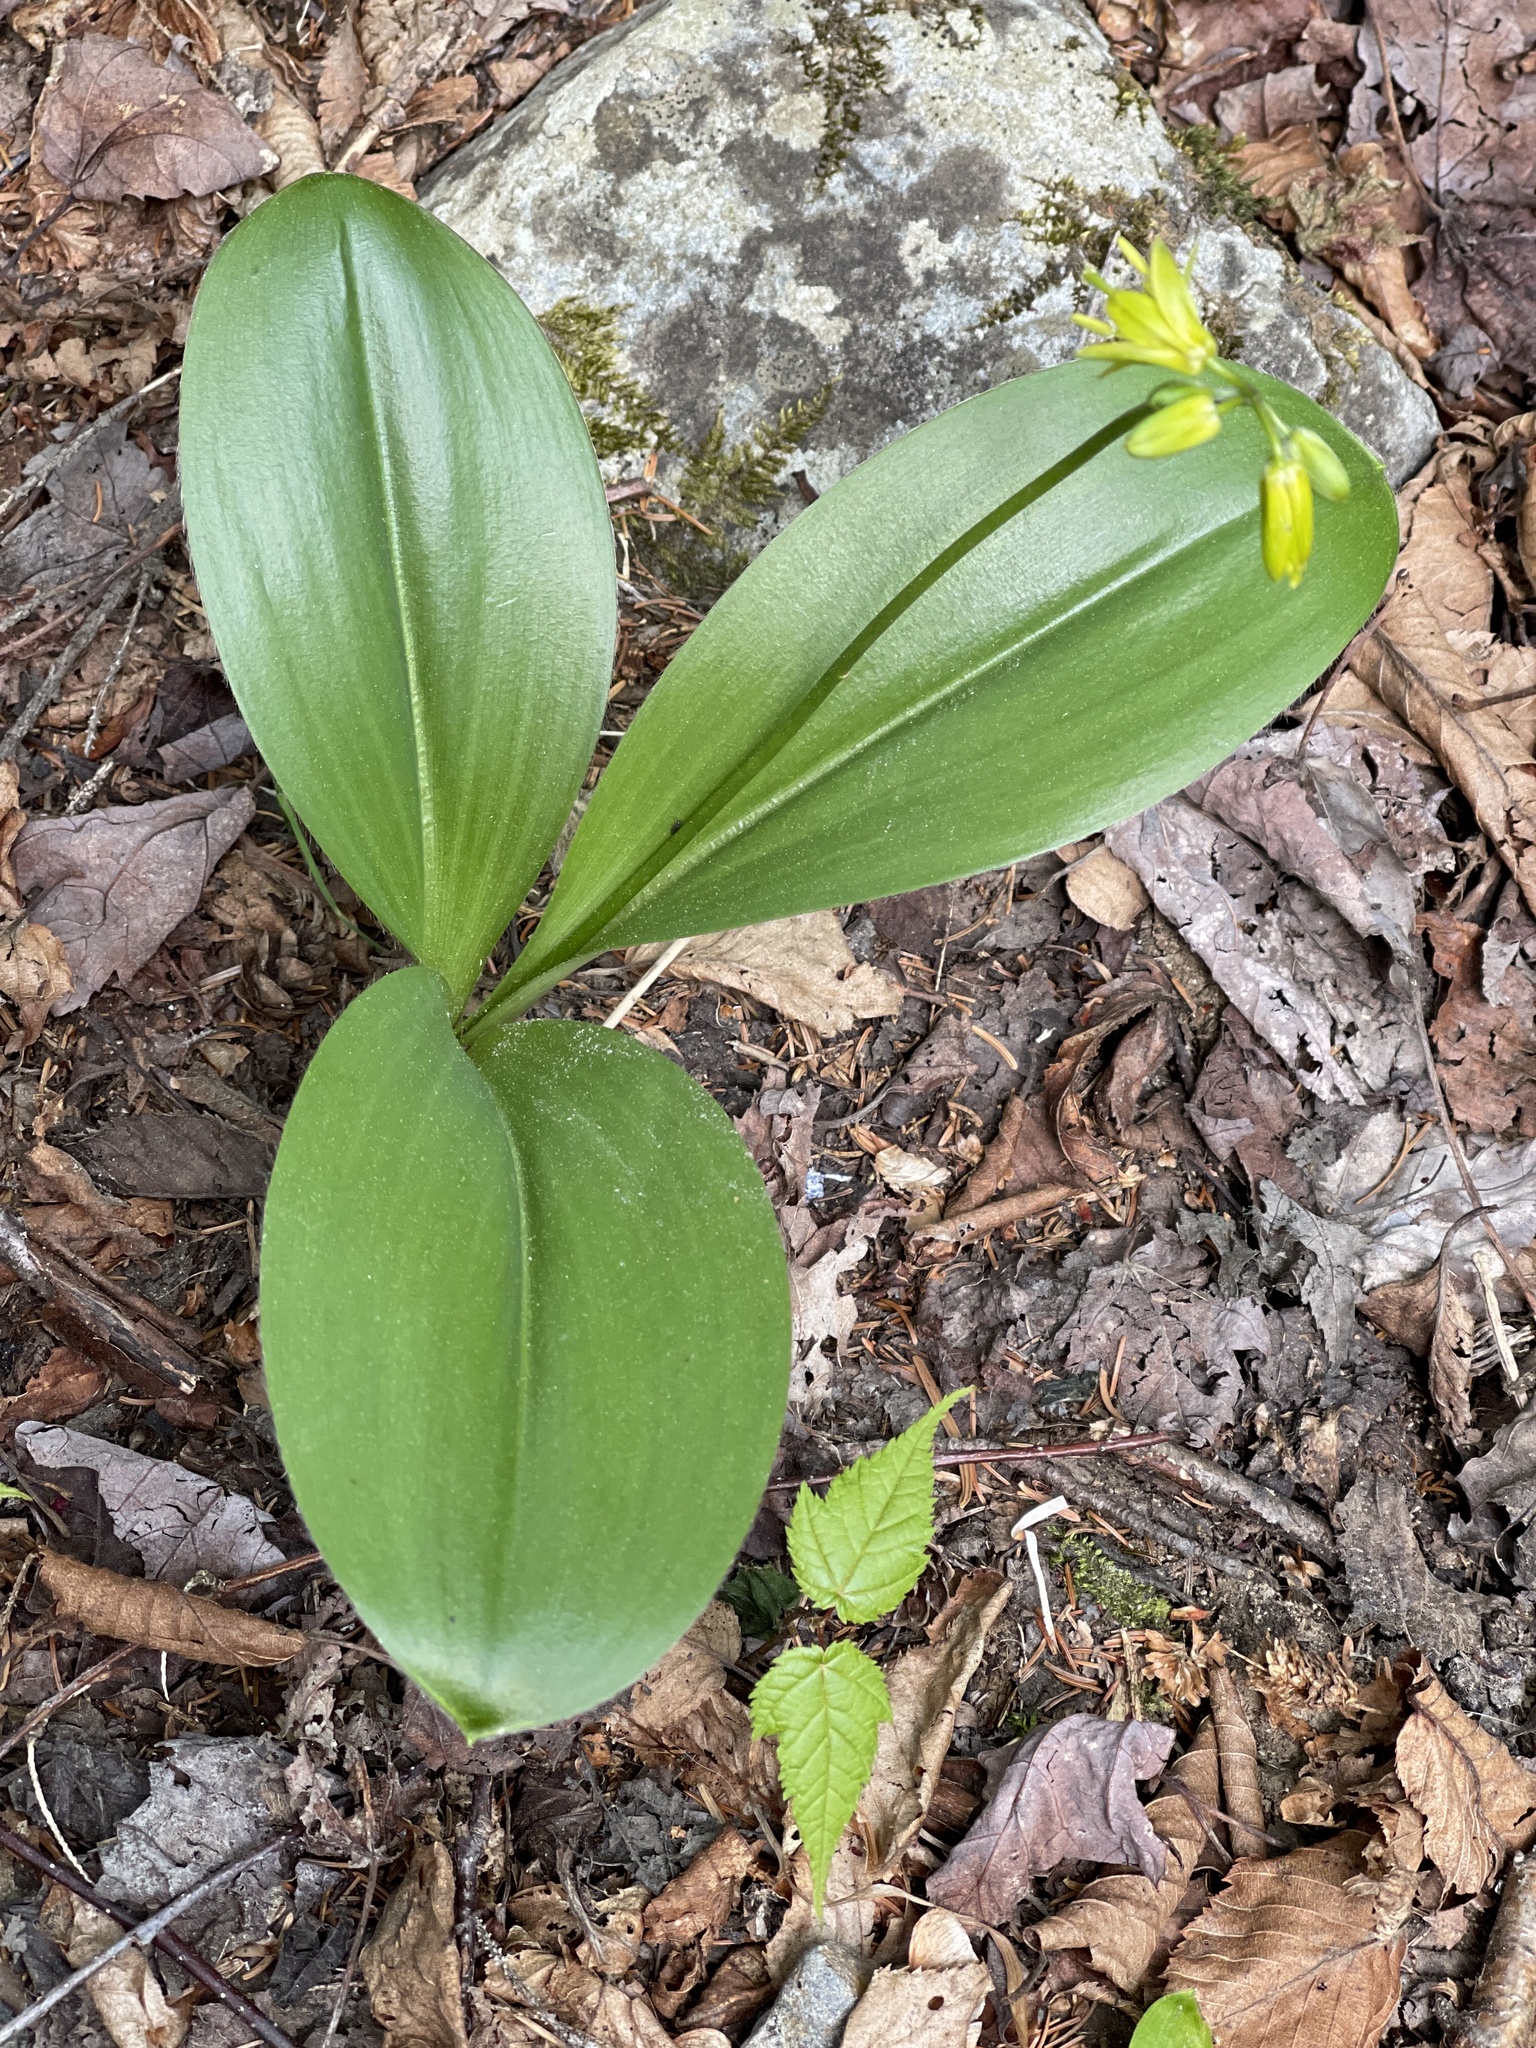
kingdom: Plantae
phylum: Tracheophyta
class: Liliopsida
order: Liliales
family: Liliaceae
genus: Clintonia
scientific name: Clintonia borealis
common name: Yellow clintonia
